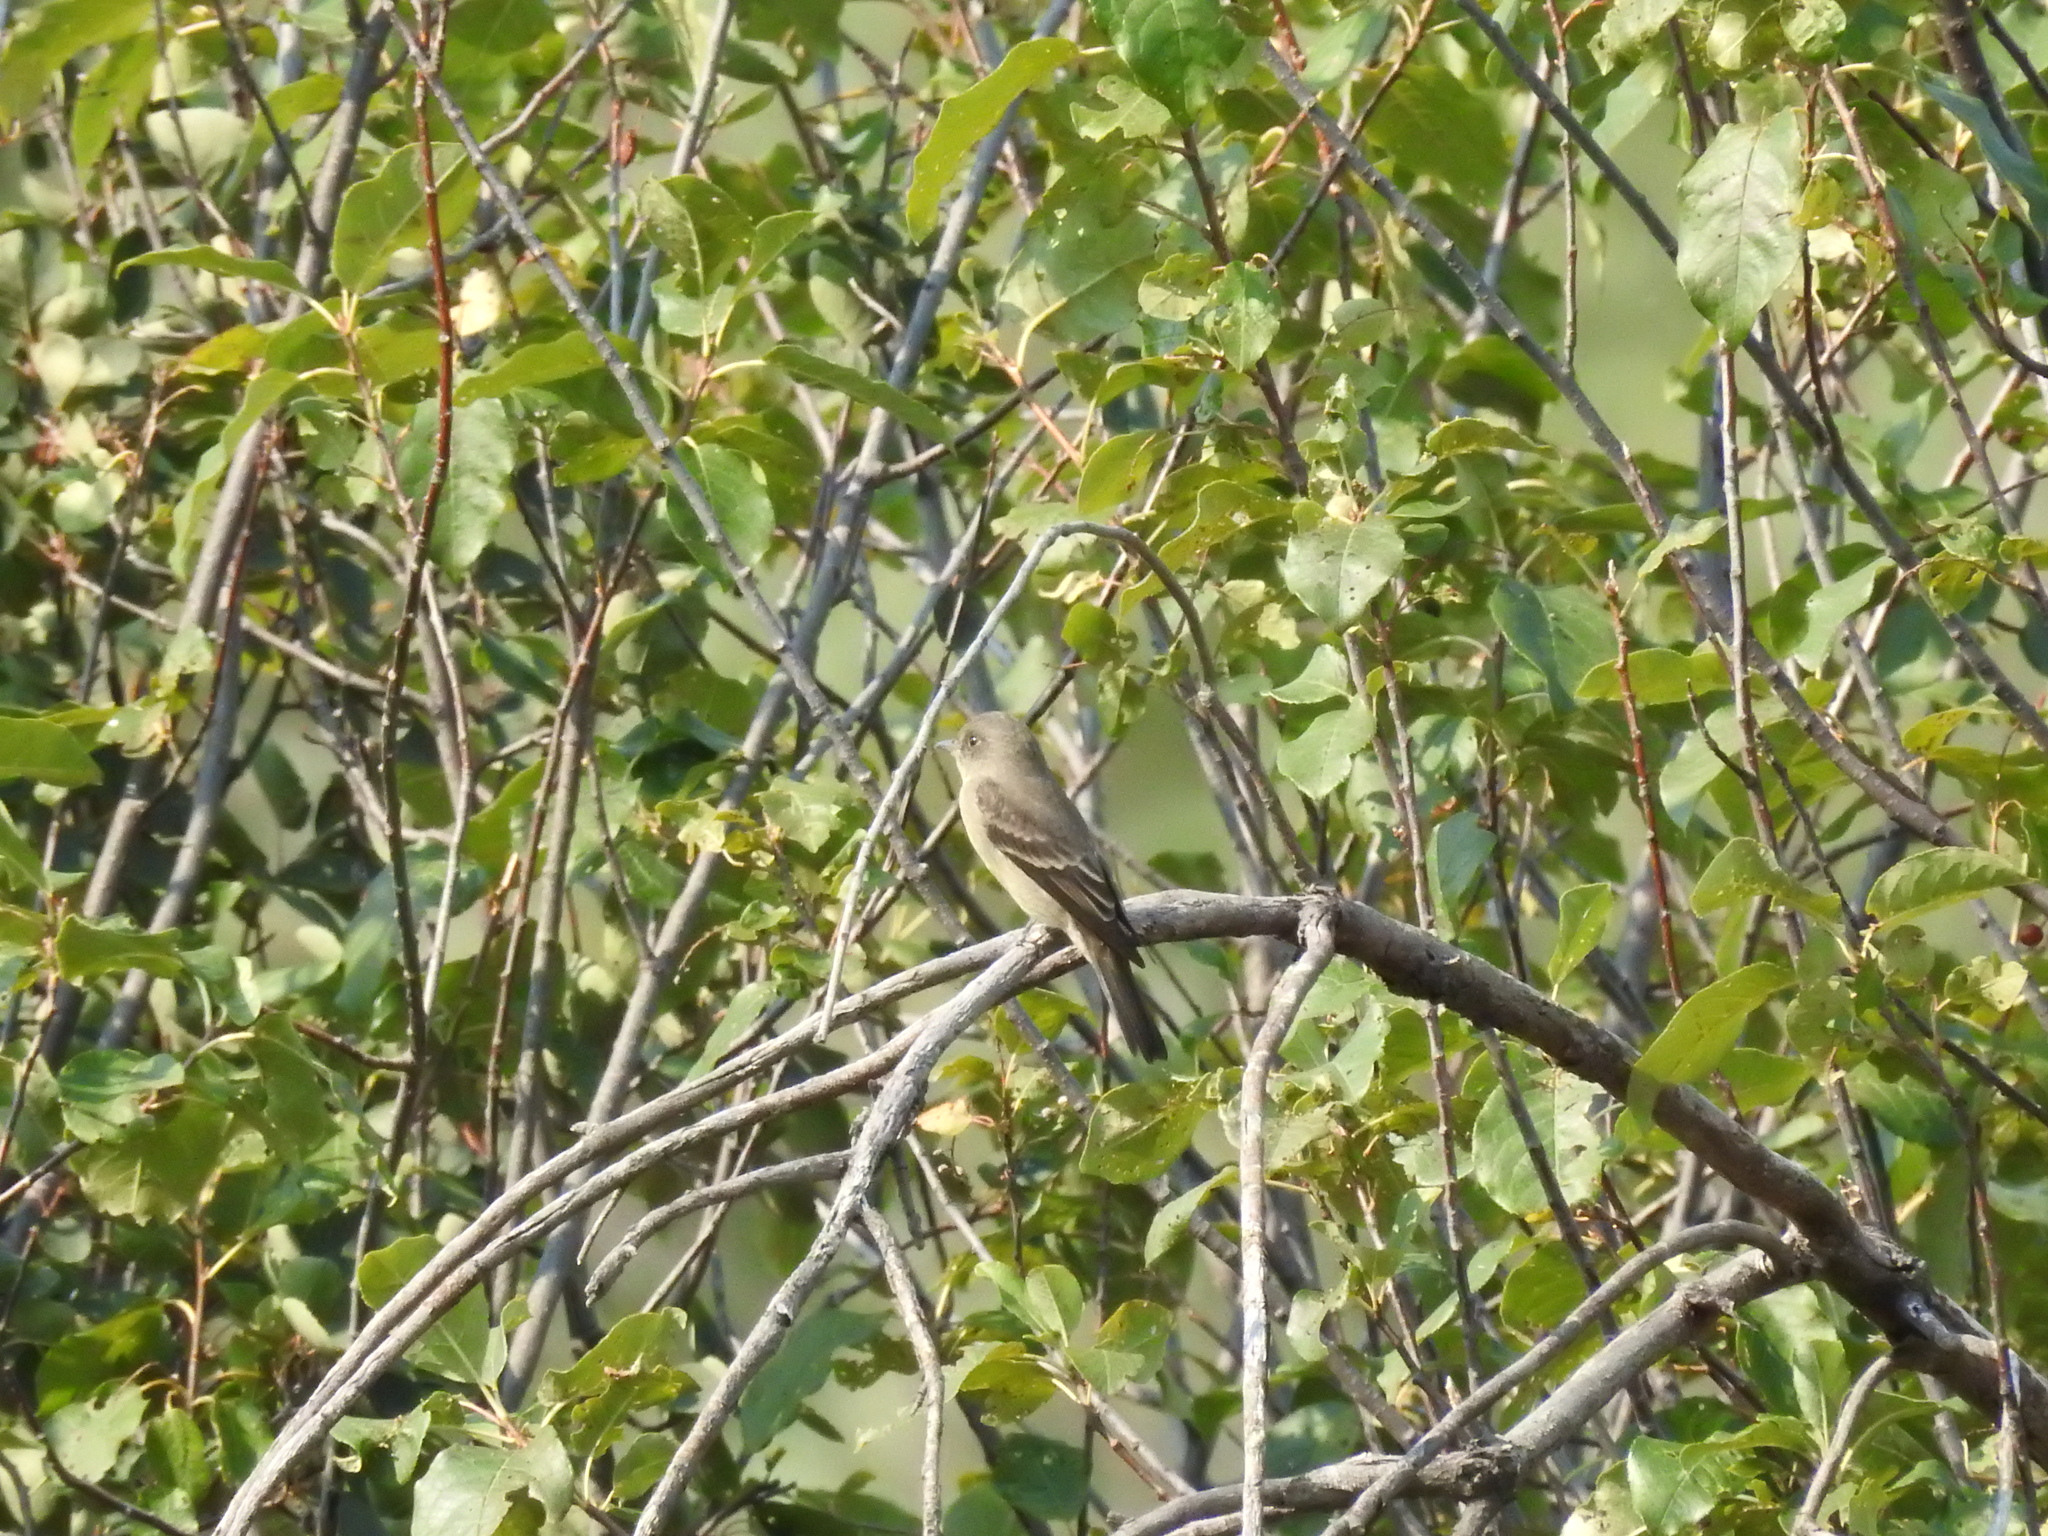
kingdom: Animalia
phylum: Chordata
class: Aves
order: Passeriformes
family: Tyrannidae
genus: Contopus
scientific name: Contopus sordidulus
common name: Western wood-pewee
